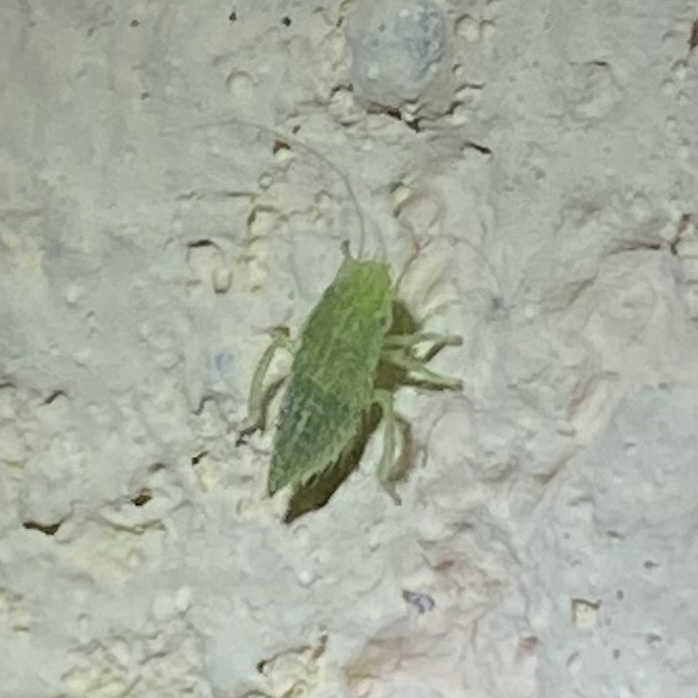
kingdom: Animalia
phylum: Arthropoda
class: Insecta
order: Hemiptera
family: Cicadellidae
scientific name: Cicadellidae
